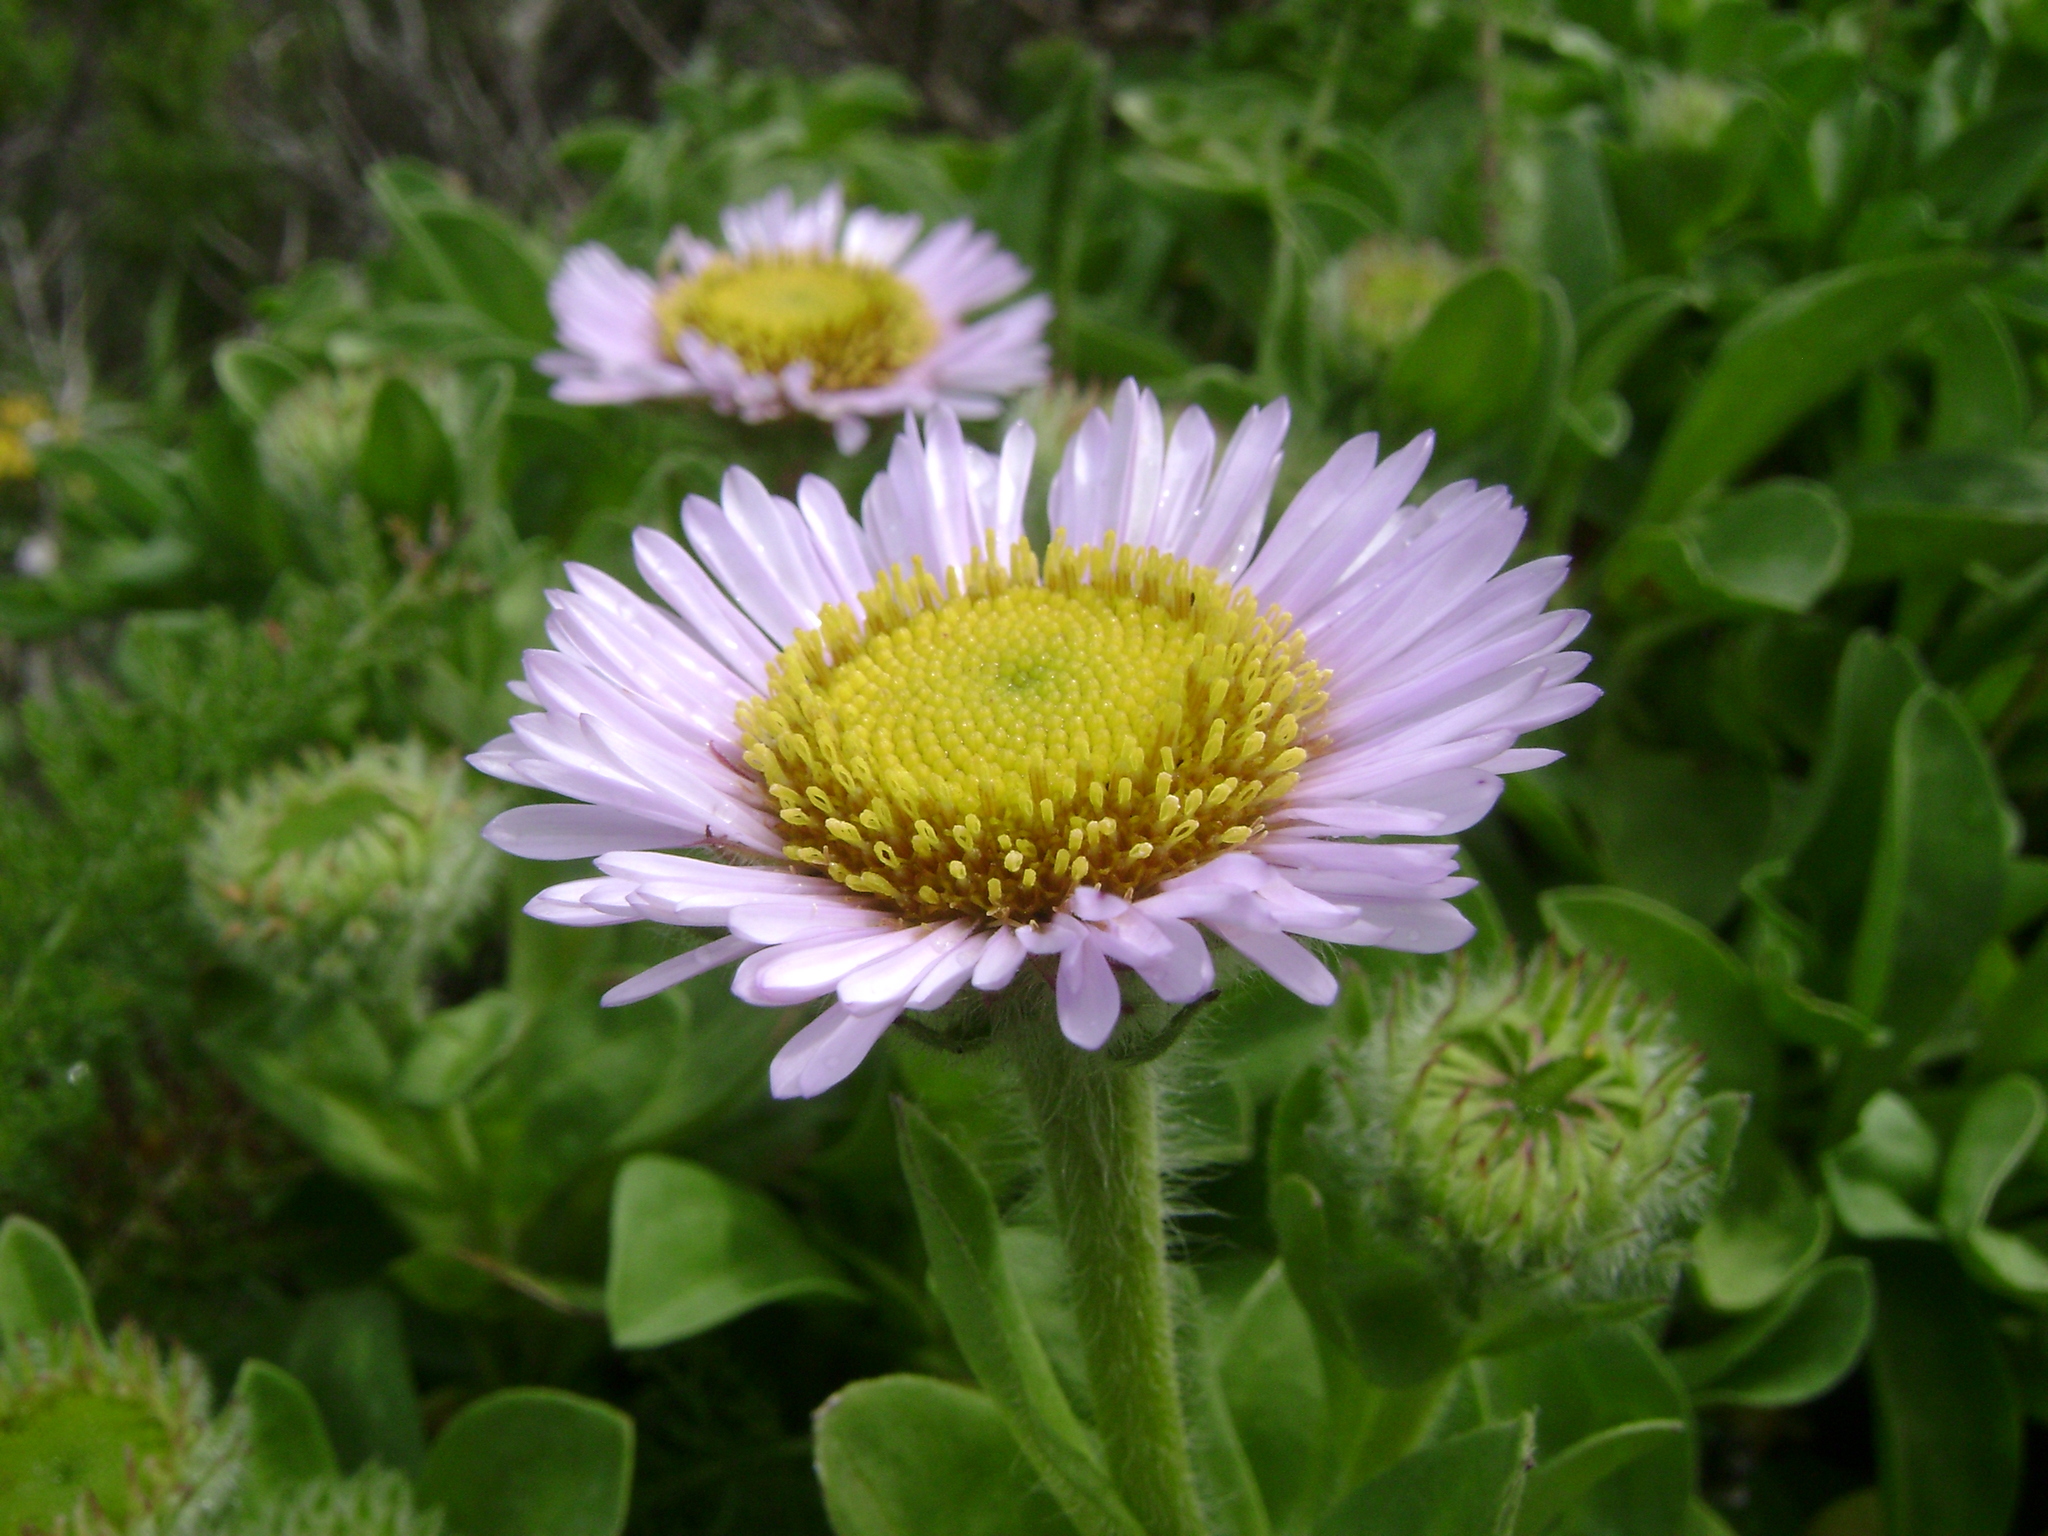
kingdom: Plantae
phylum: Tracheophyta
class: Magnoliopsida
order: Asterales
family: Asteraceae
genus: Erigeron
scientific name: Erigeron glaucus
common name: Seaside daisy
